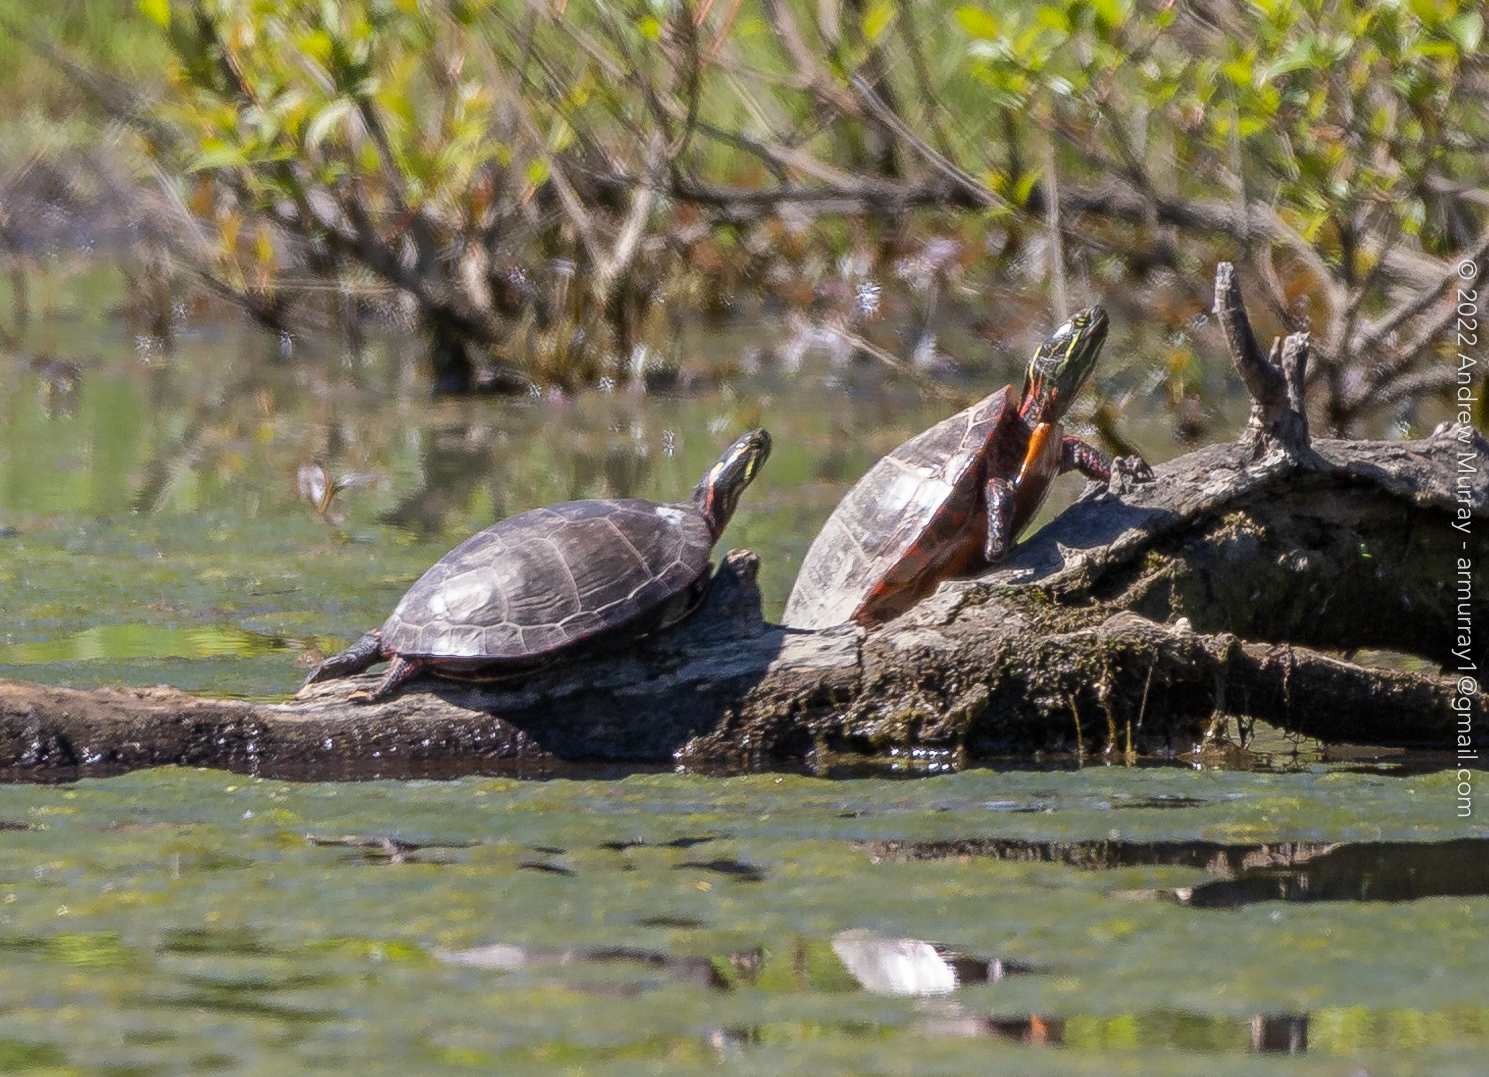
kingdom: Animalia
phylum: Chordata
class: Testudines
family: Emydidae
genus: Chrysemys
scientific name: Chrysemys picta
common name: Painted turtle
